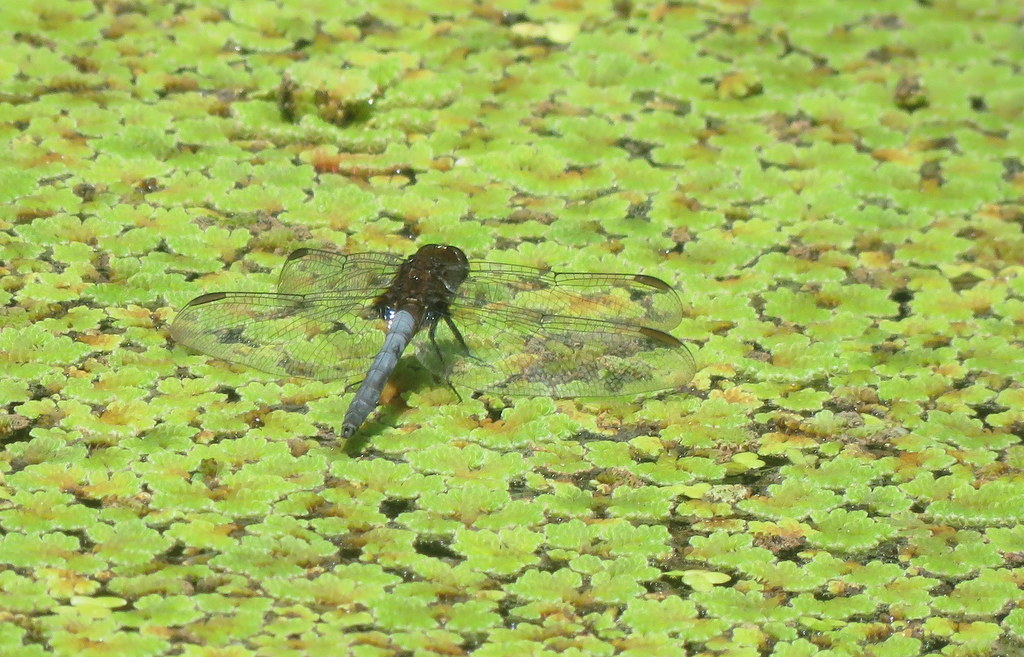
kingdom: Animalia
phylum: Arthropoda
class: Insecta
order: Odonata
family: Libellulidae
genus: Erythrodiplax
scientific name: Erythrodiplax melanorubra
